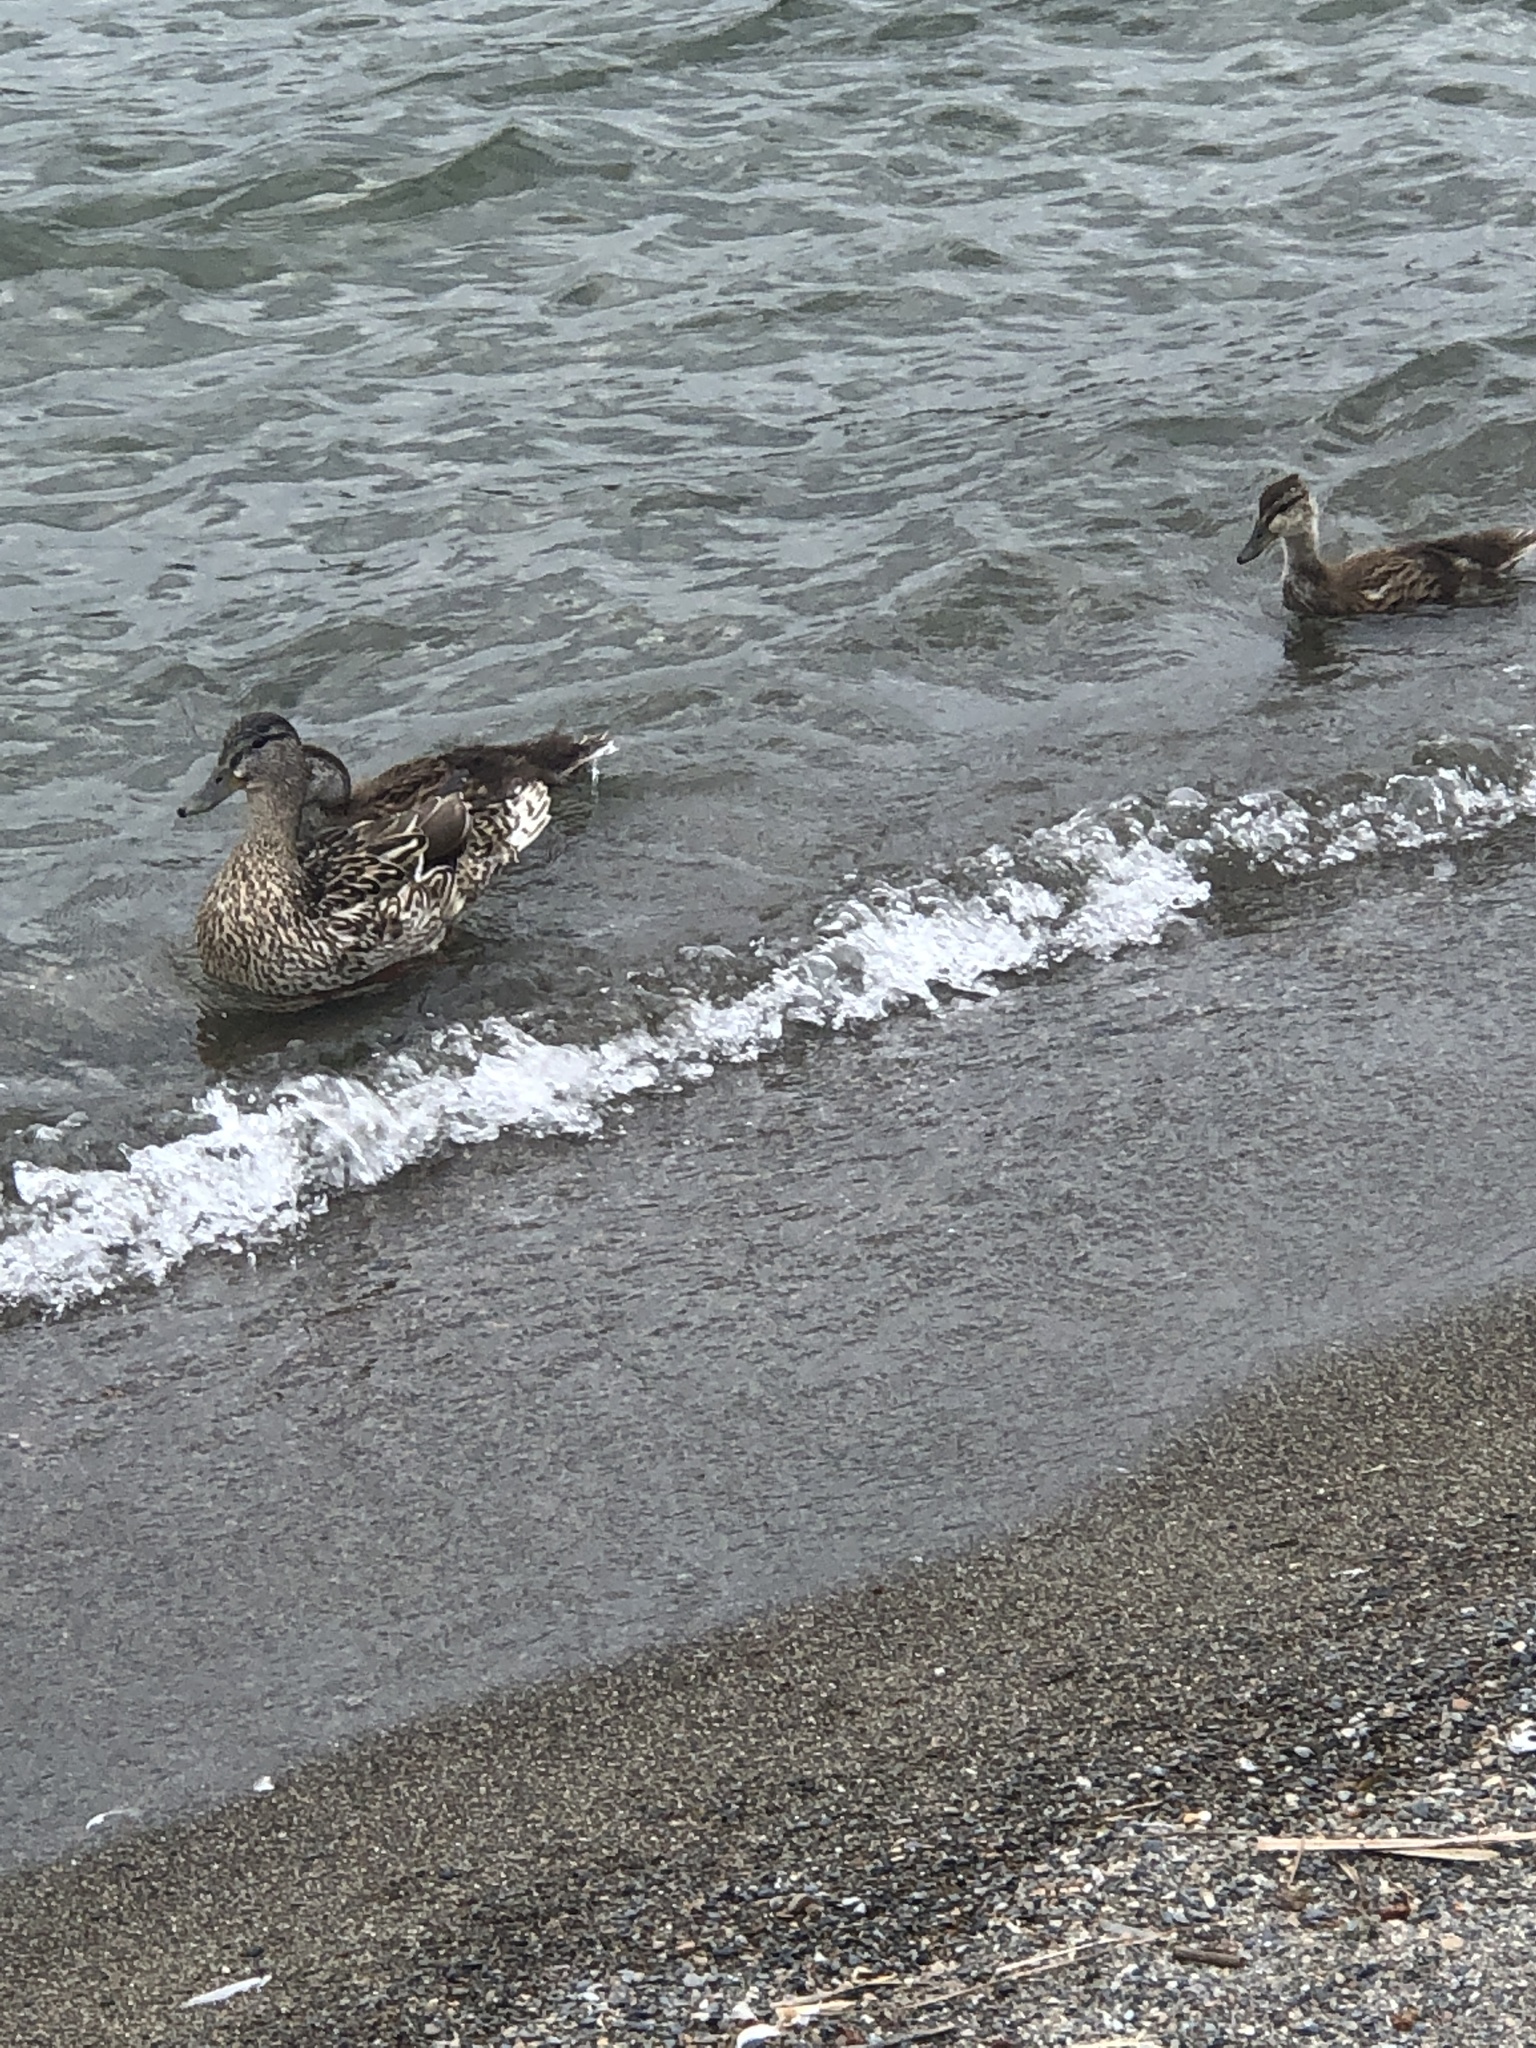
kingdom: Animalia
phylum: Chordata
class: Aves
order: Anseriformes
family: Anatidae
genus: Anas
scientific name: Anas platyrhynchos
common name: Mallard
